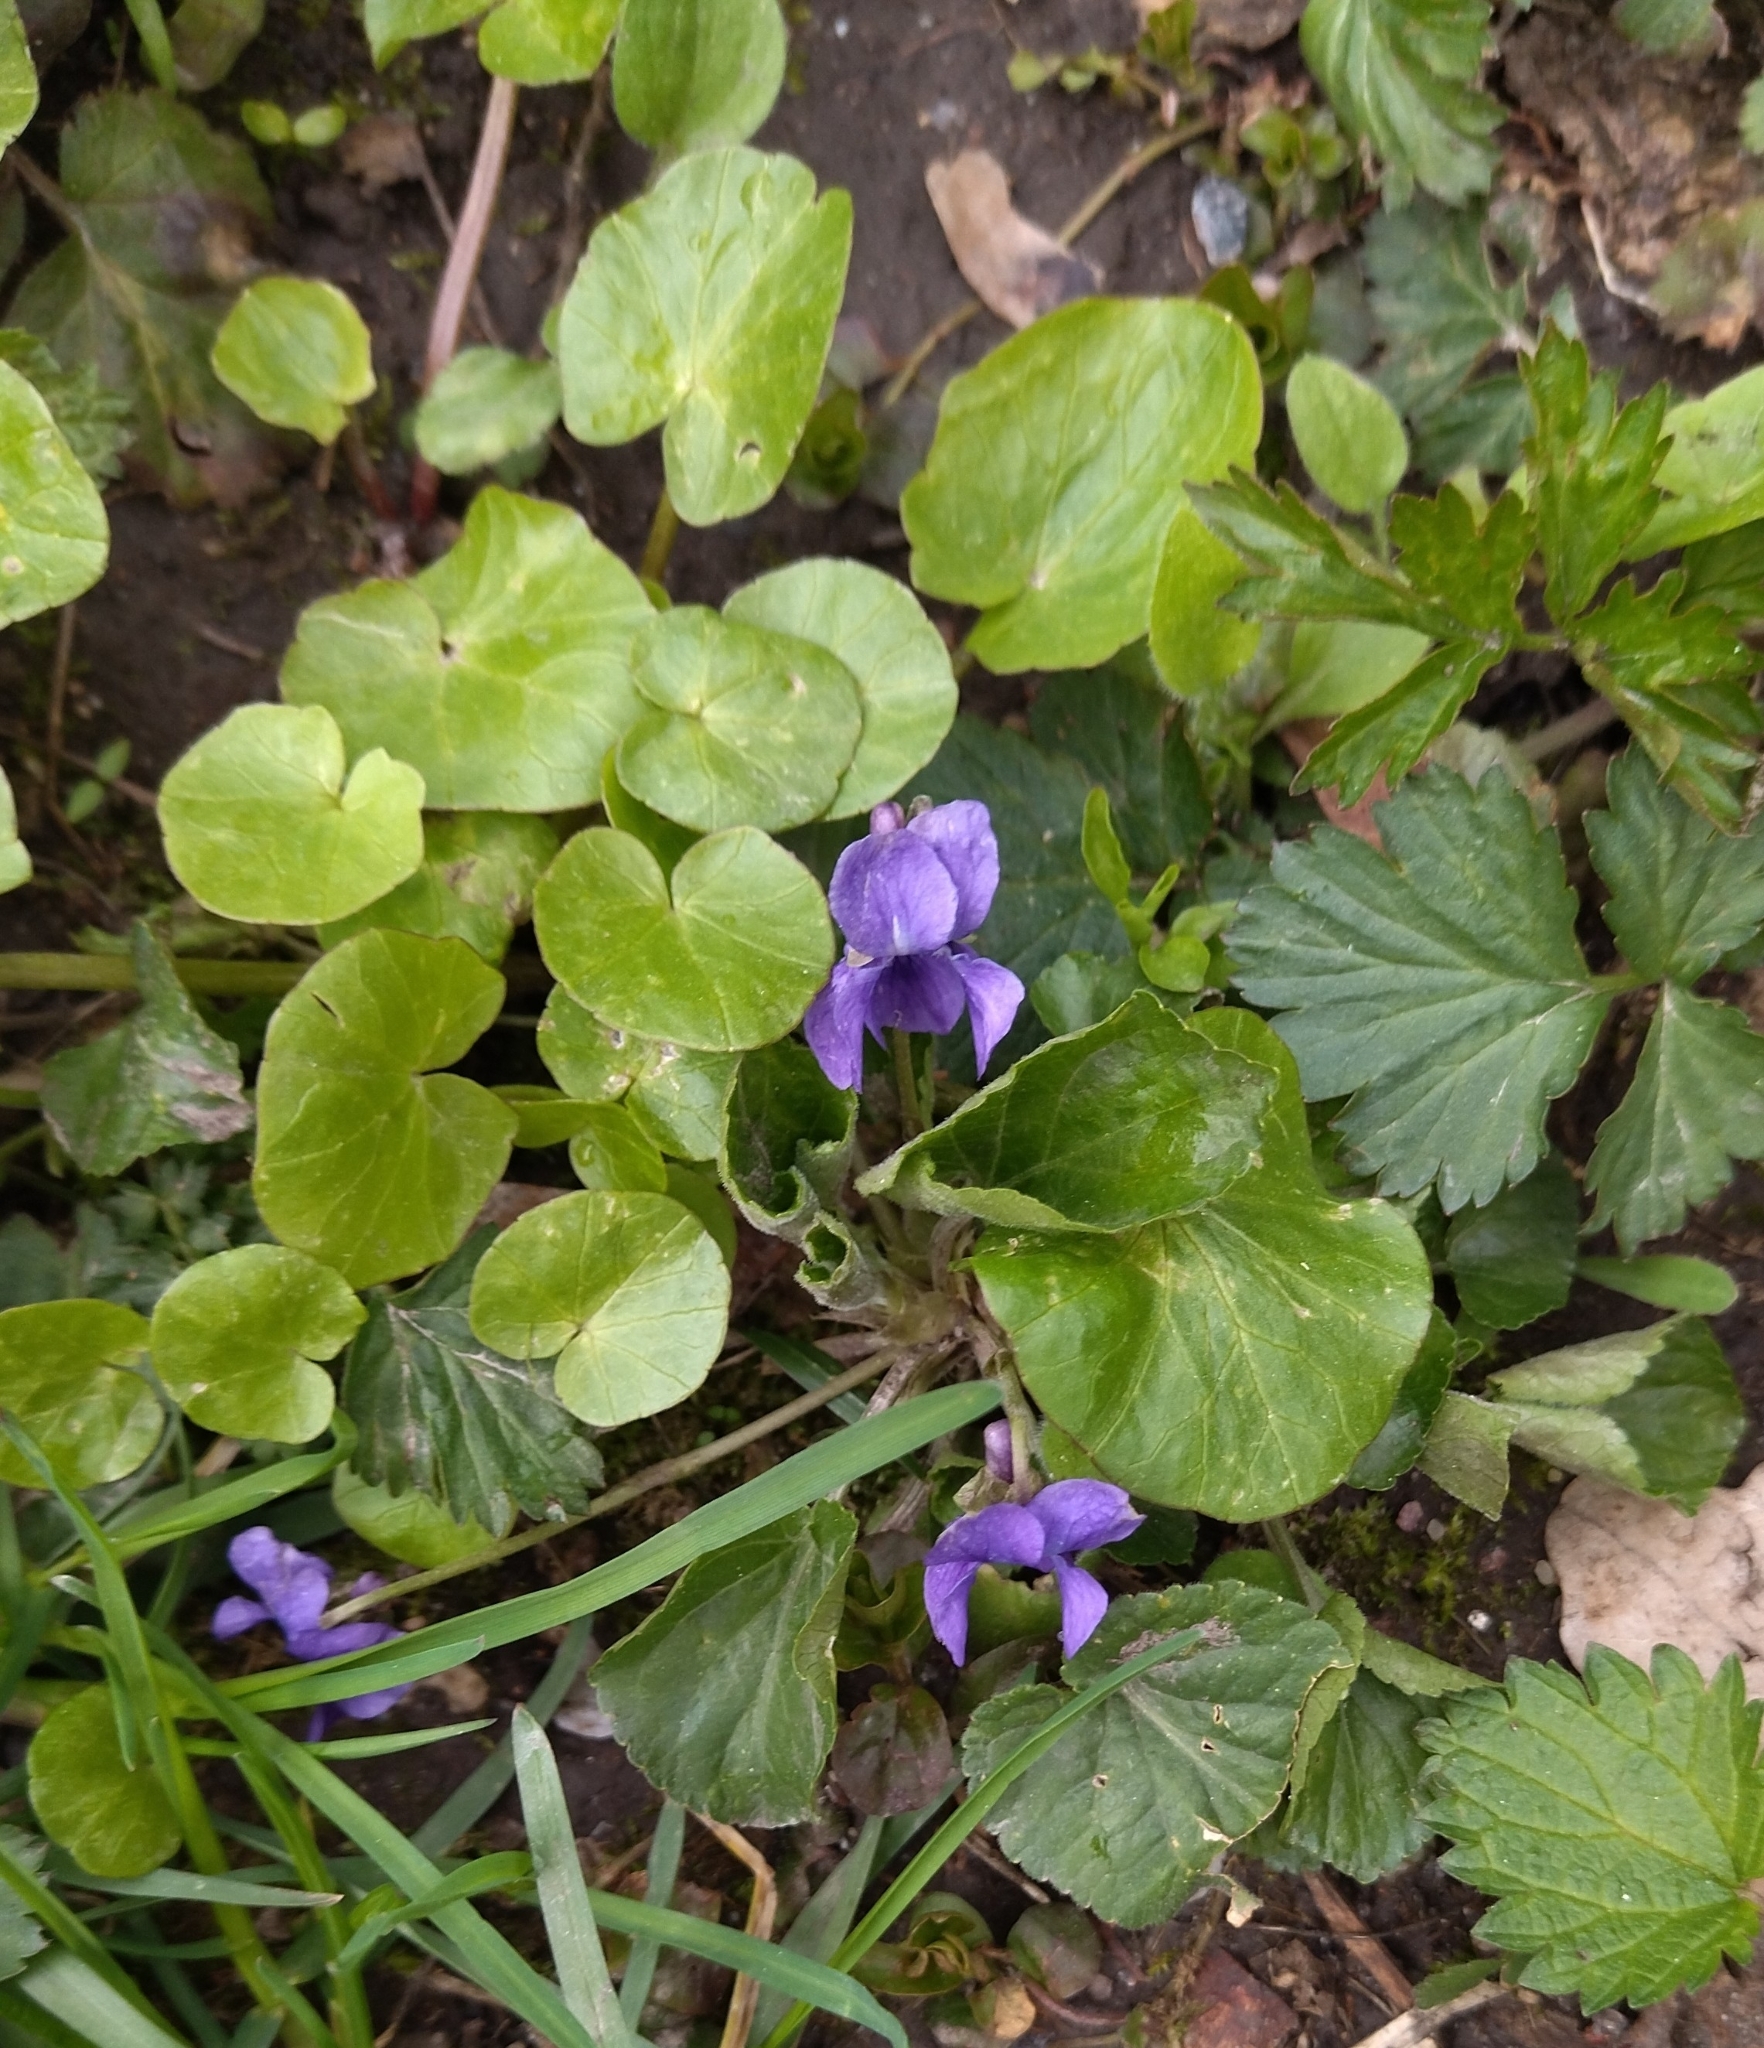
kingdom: Plantae
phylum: Tracheophyta
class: Magnoliopsida
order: Malpighiales
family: Violaceae
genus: Viola
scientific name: Viola odorata
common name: Sweet violet
